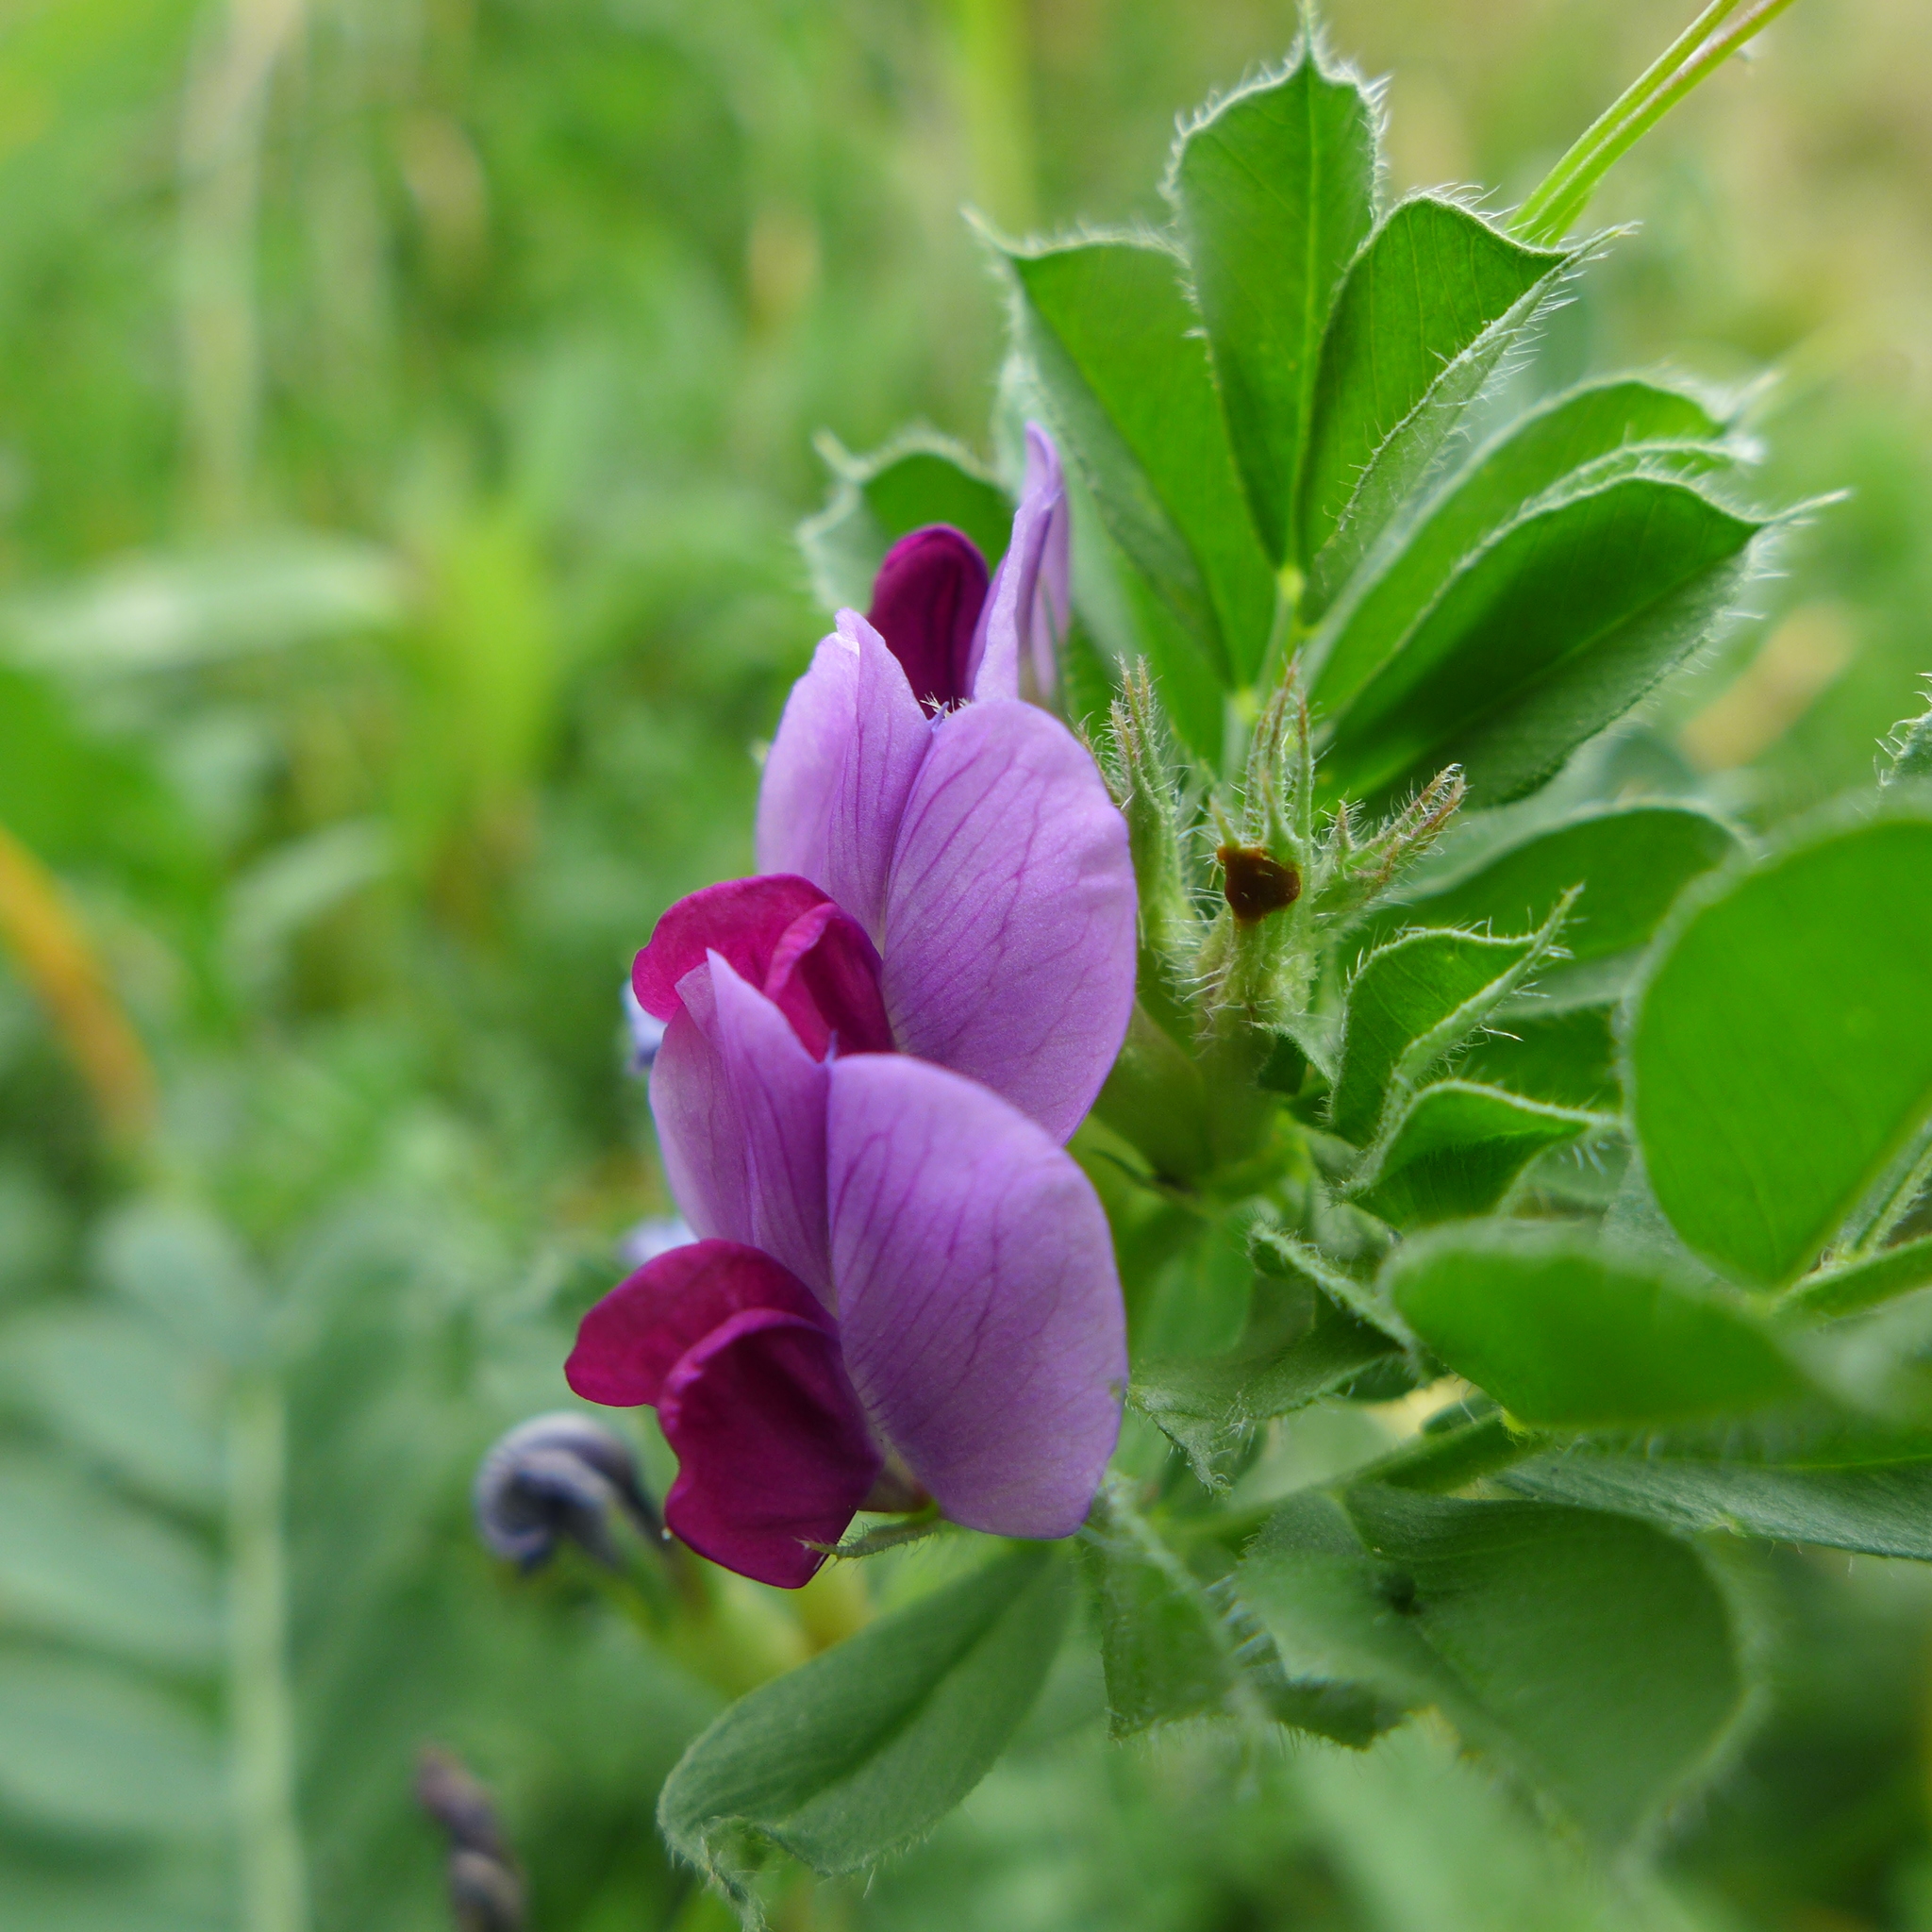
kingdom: Plantae
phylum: Tracheophyta
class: Magnoliopsida
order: Fabales
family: Fabaceae
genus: Vicia
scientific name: Vicia sativa
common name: Garden vetch
